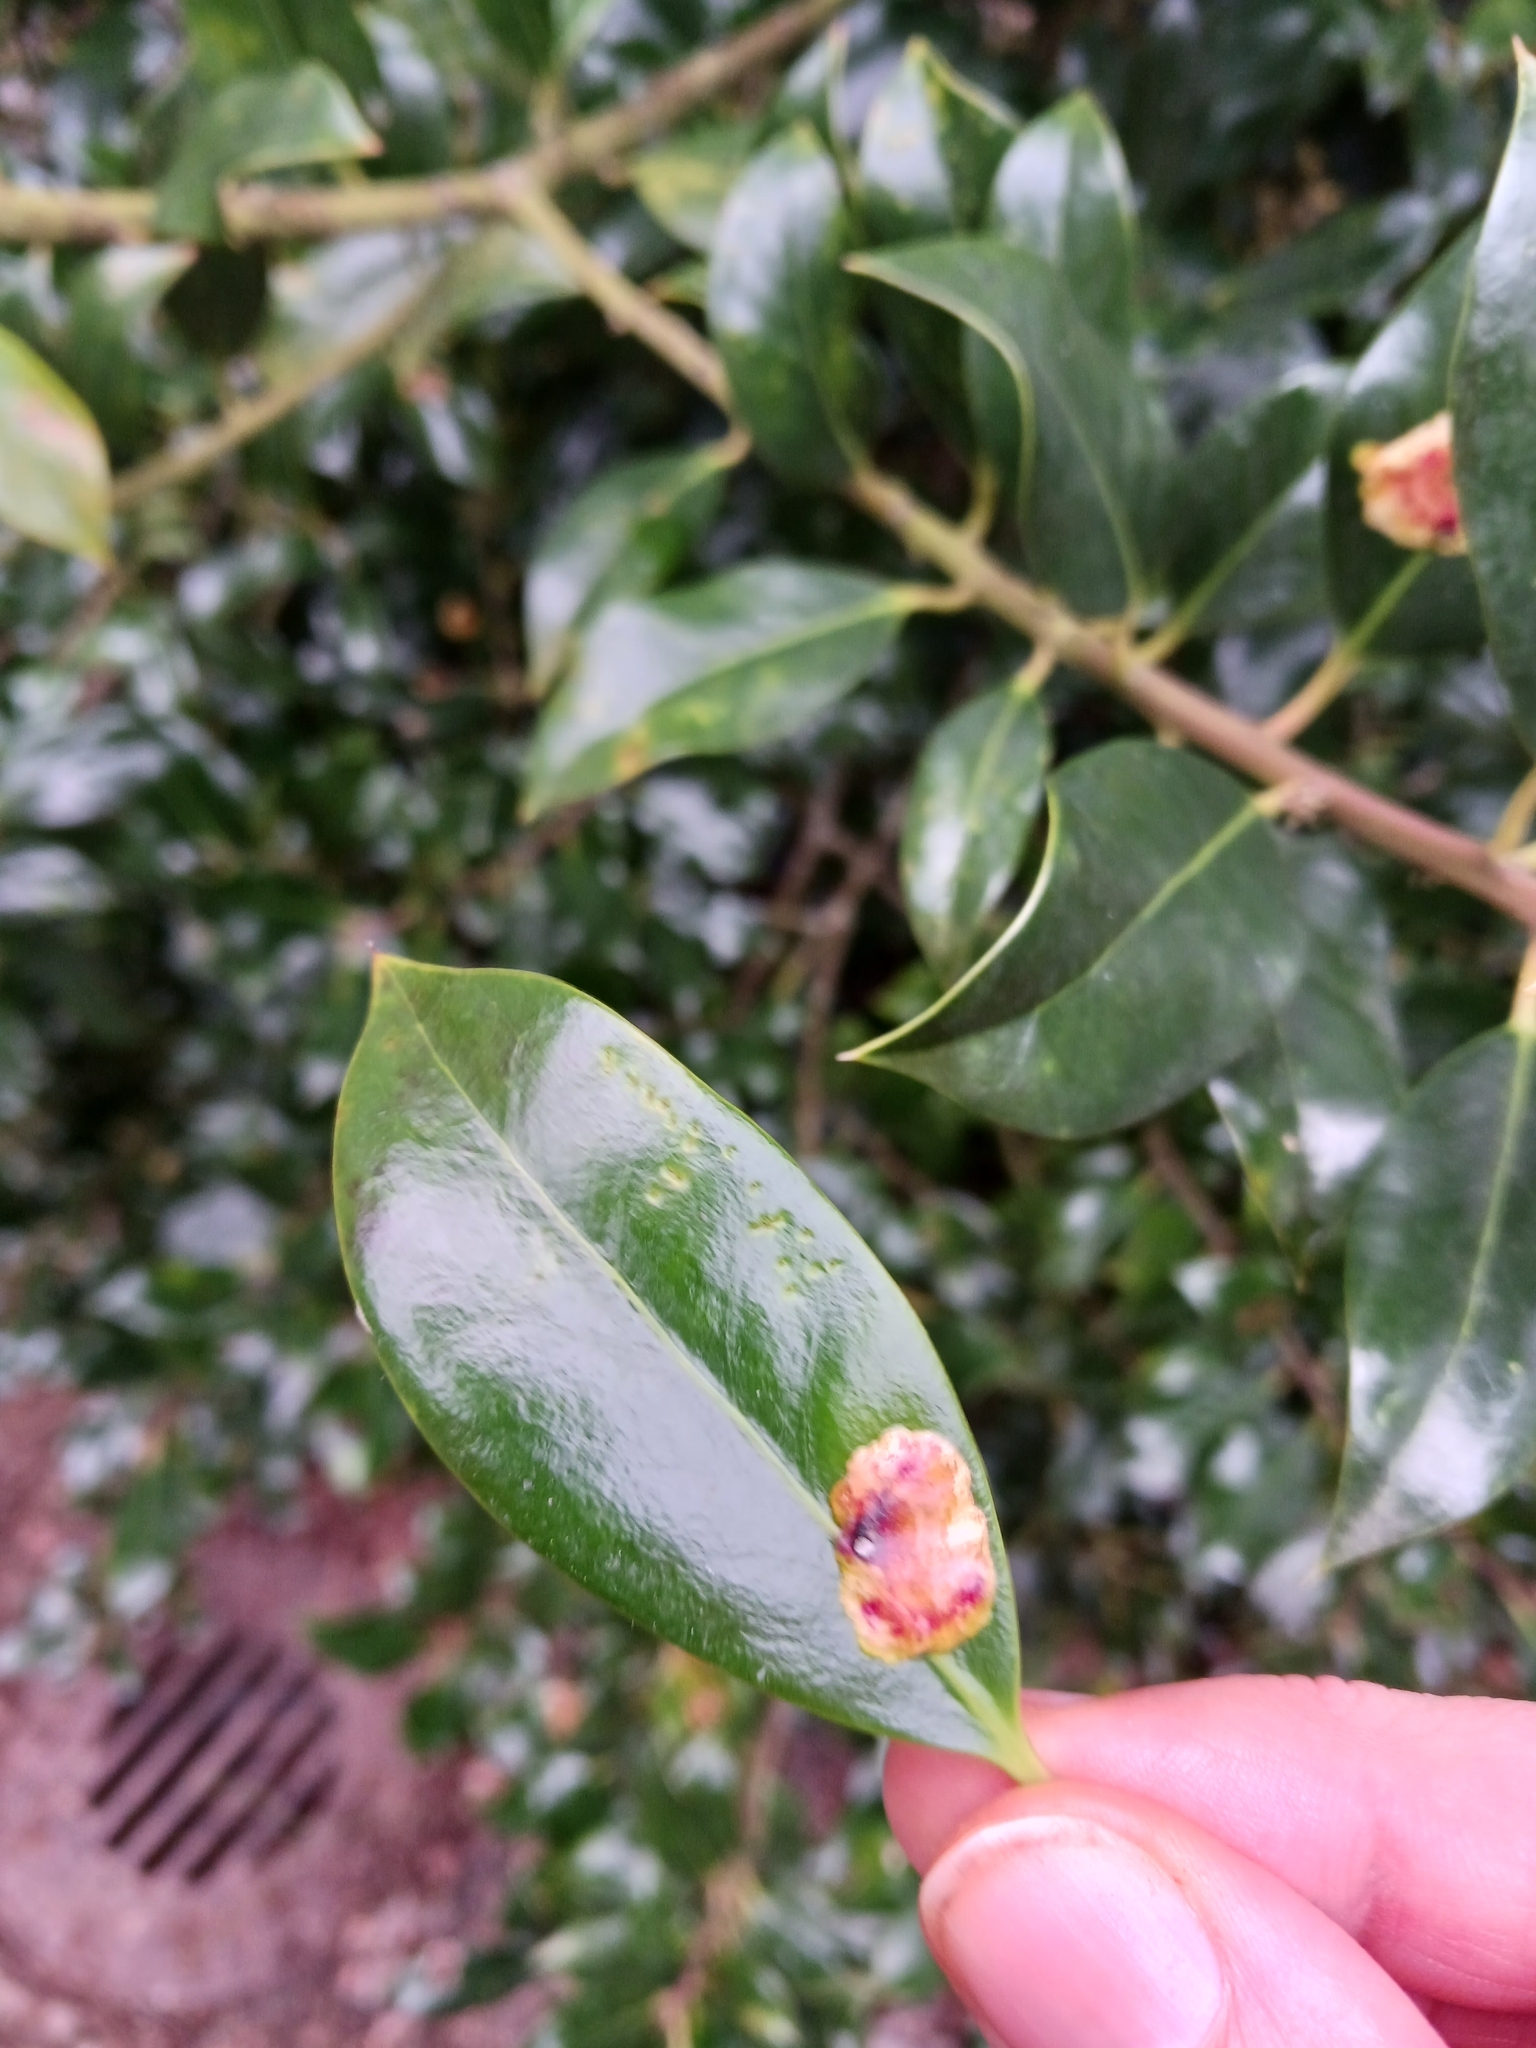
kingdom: Animalia
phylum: Arthropoda
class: Insecta
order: Diptera
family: Agromyzidae
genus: Phytomyza
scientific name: Phytomyza ilicis
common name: Holly leafminer
